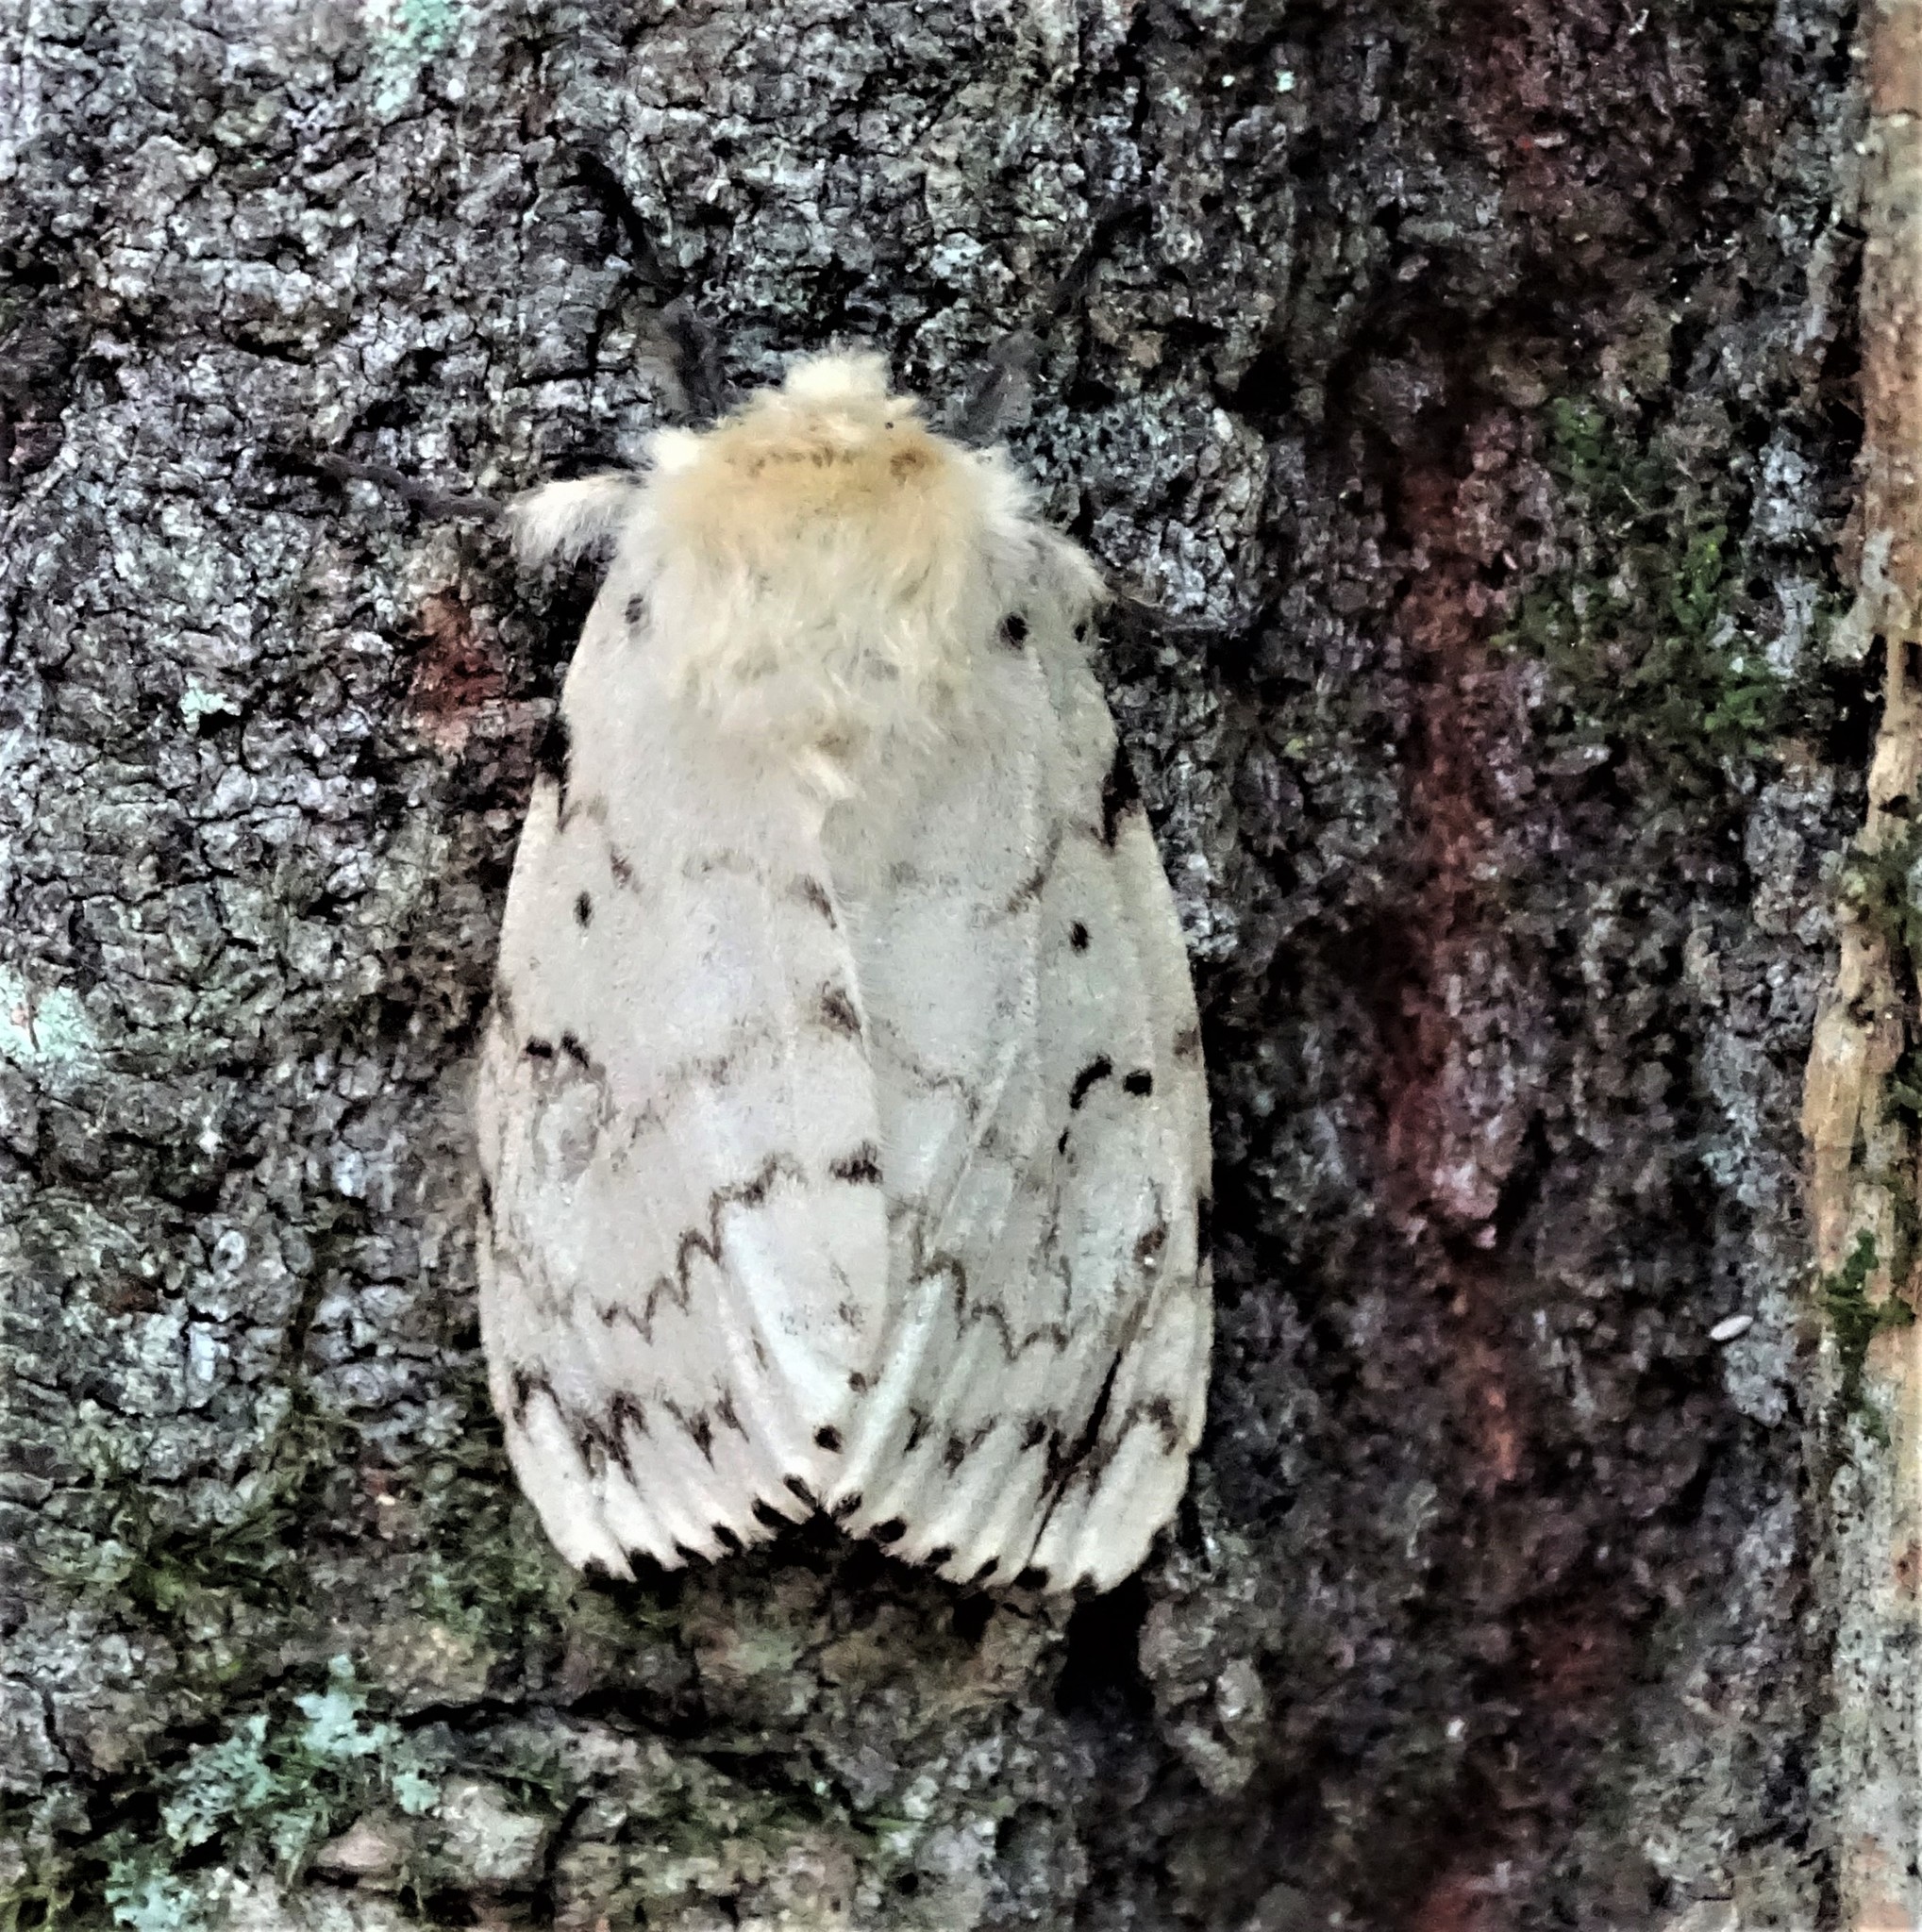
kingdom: Animalia
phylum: Arthropoda
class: Insecta
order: Lepidoptera
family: Erebidae
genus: Lymantria
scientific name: Lymantria dispar
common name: Gypsy moth
